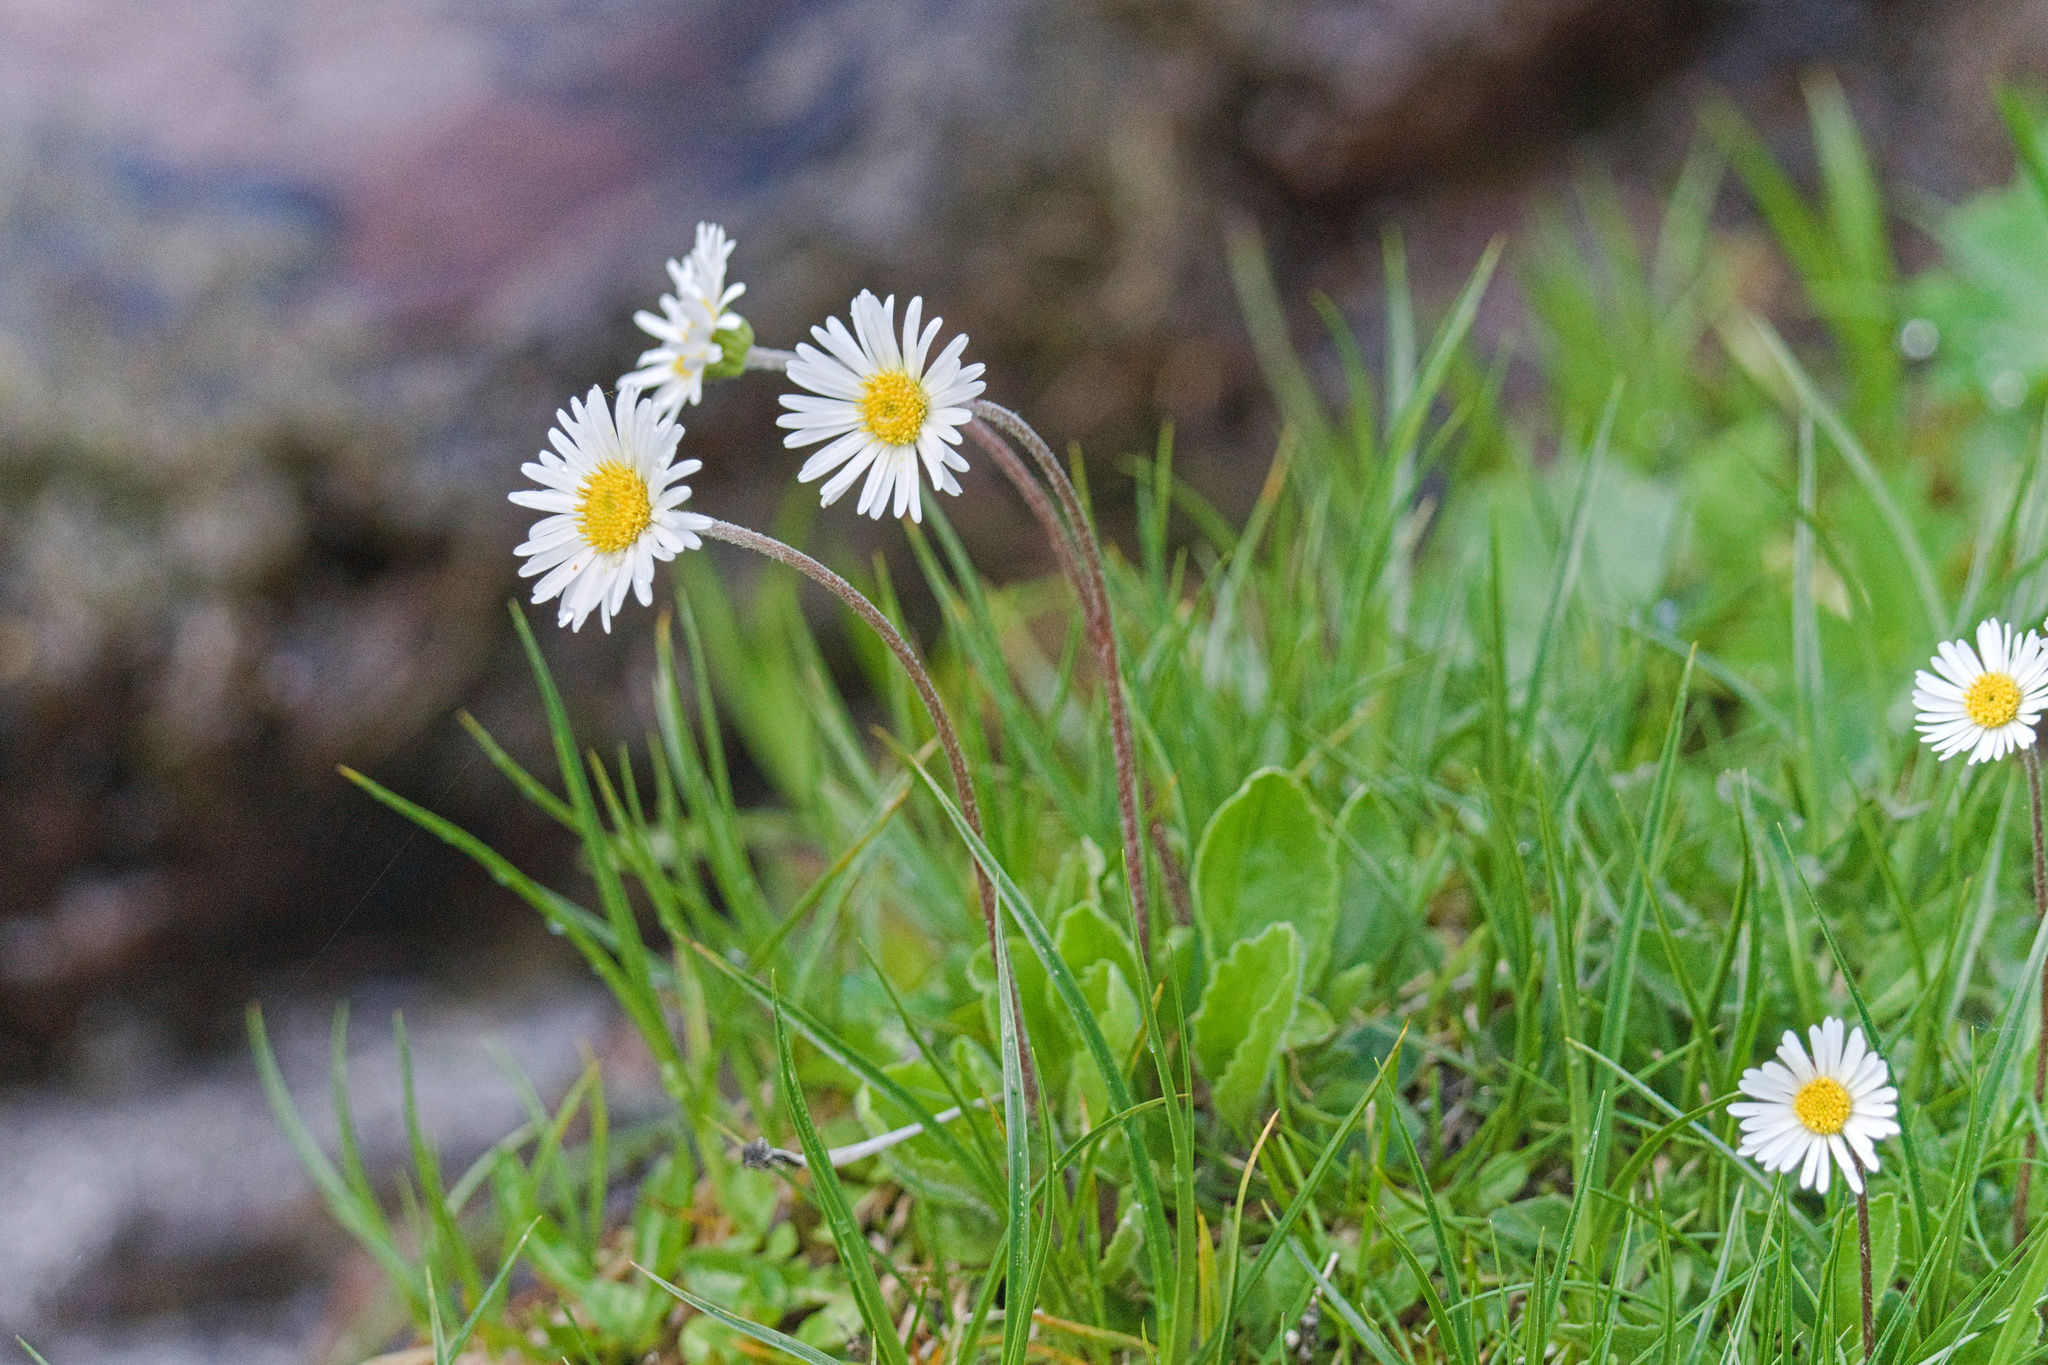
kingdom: Plantae
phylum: Tracheophyta
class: Magnoliopsida
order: Asterales
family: Asteraceae
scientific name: Asteraceae
